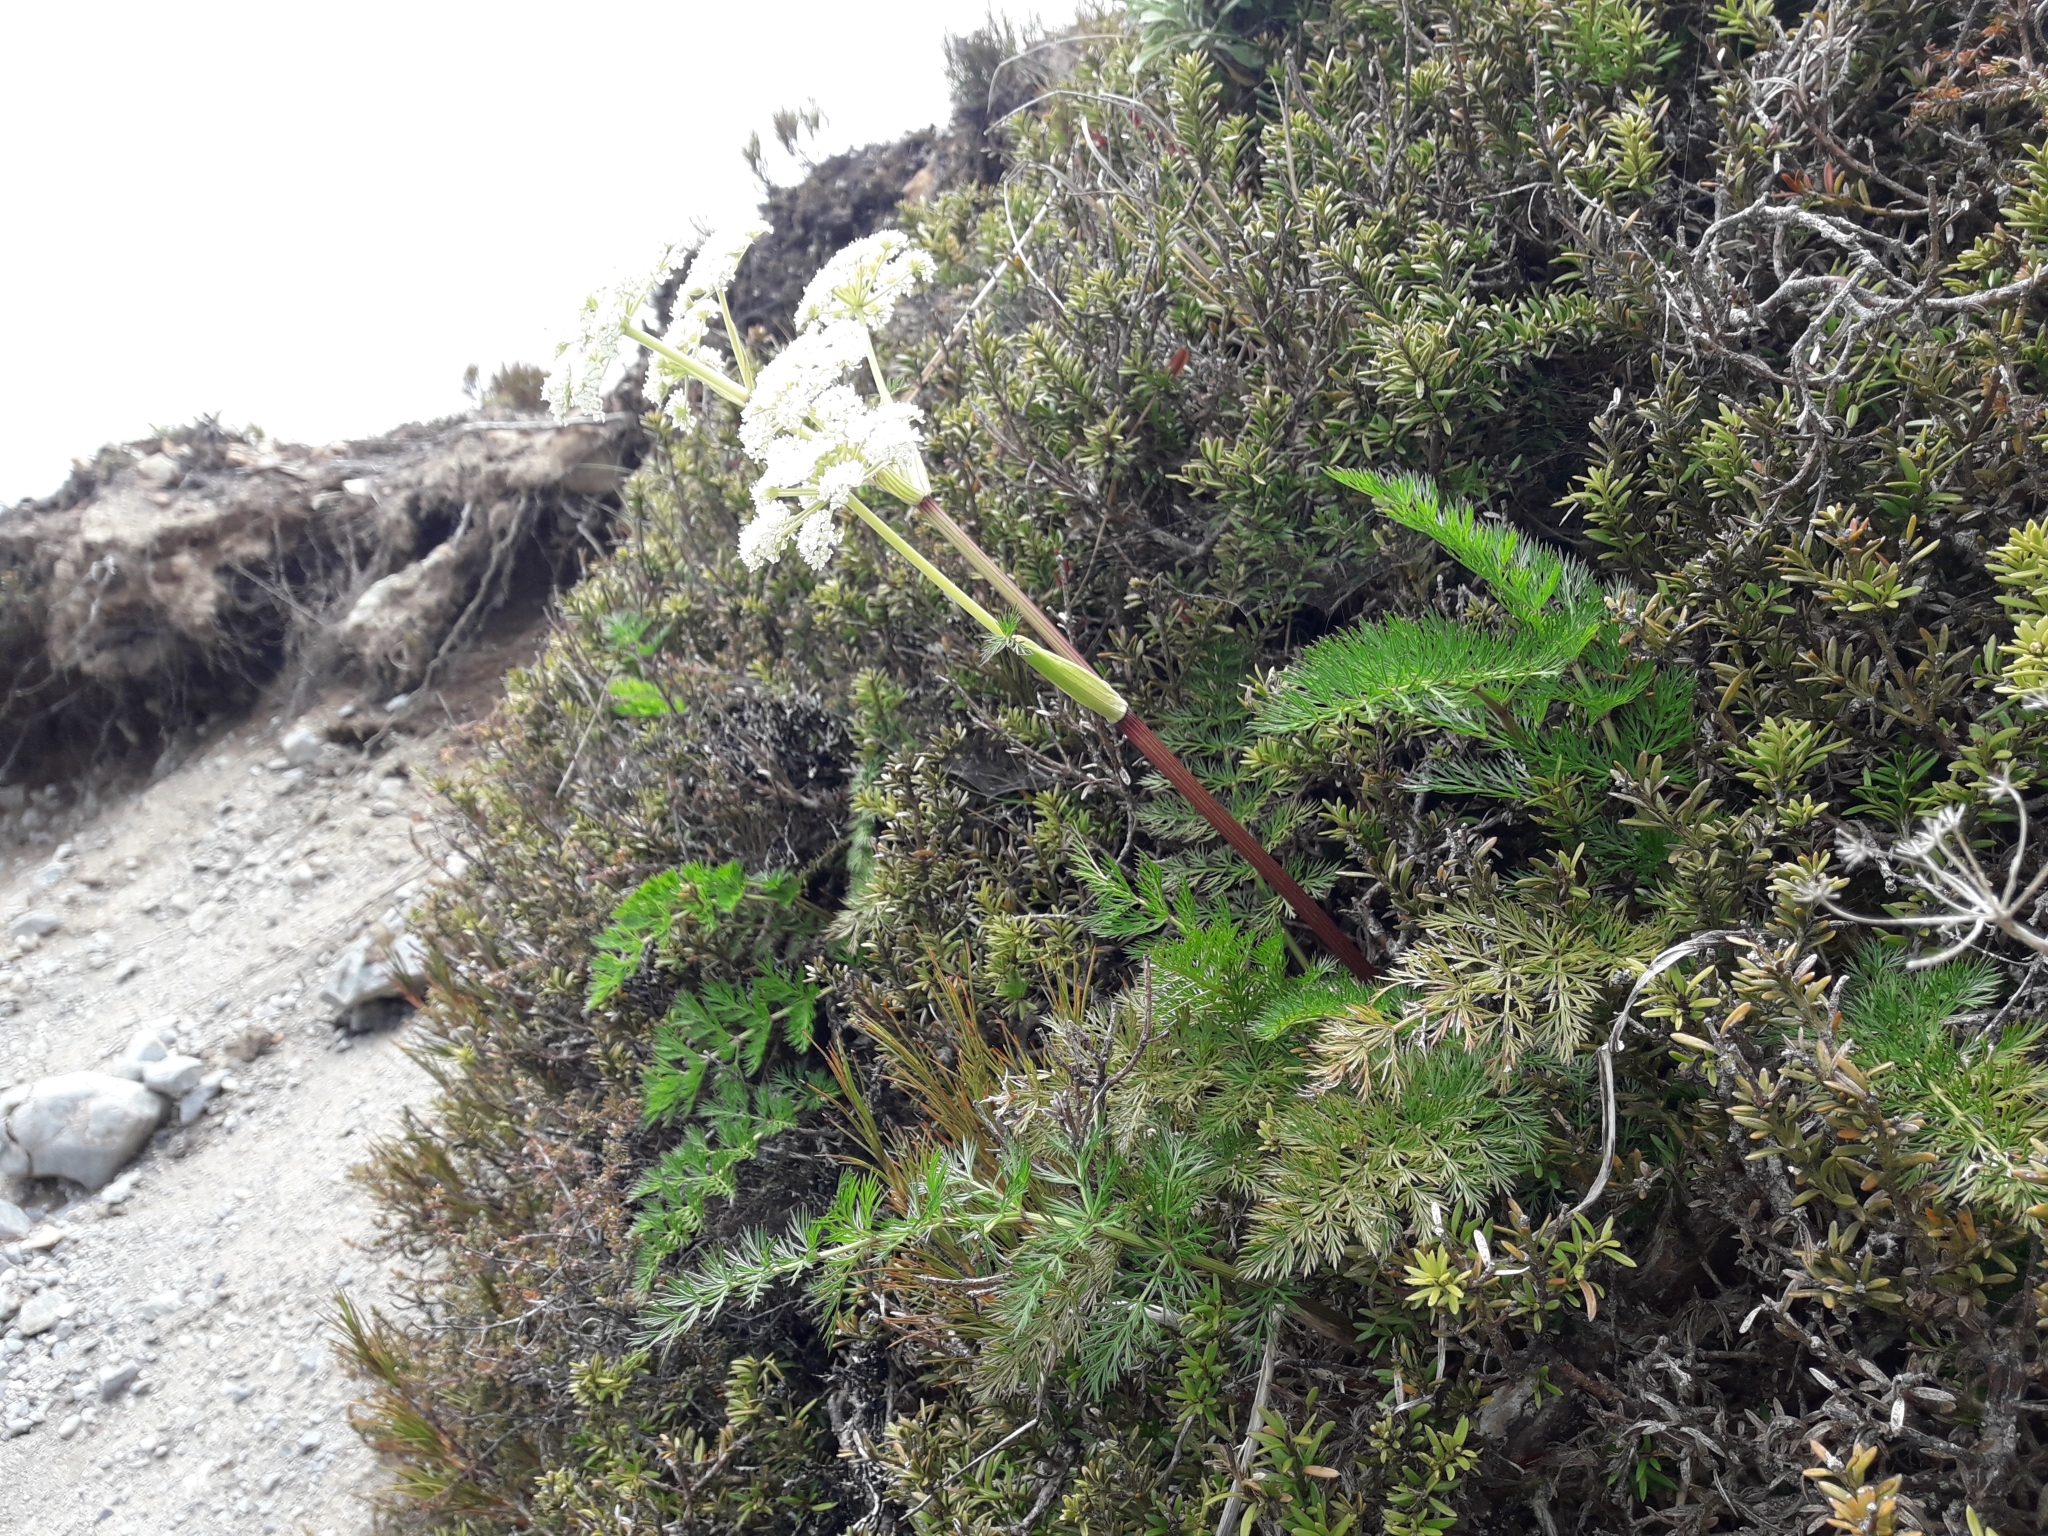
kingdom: Plantae
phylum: Tracheophyta
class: Magnoliopsida
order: Apiales
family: Apiaceae
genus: Anisotome
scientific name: Anisotome haastii
